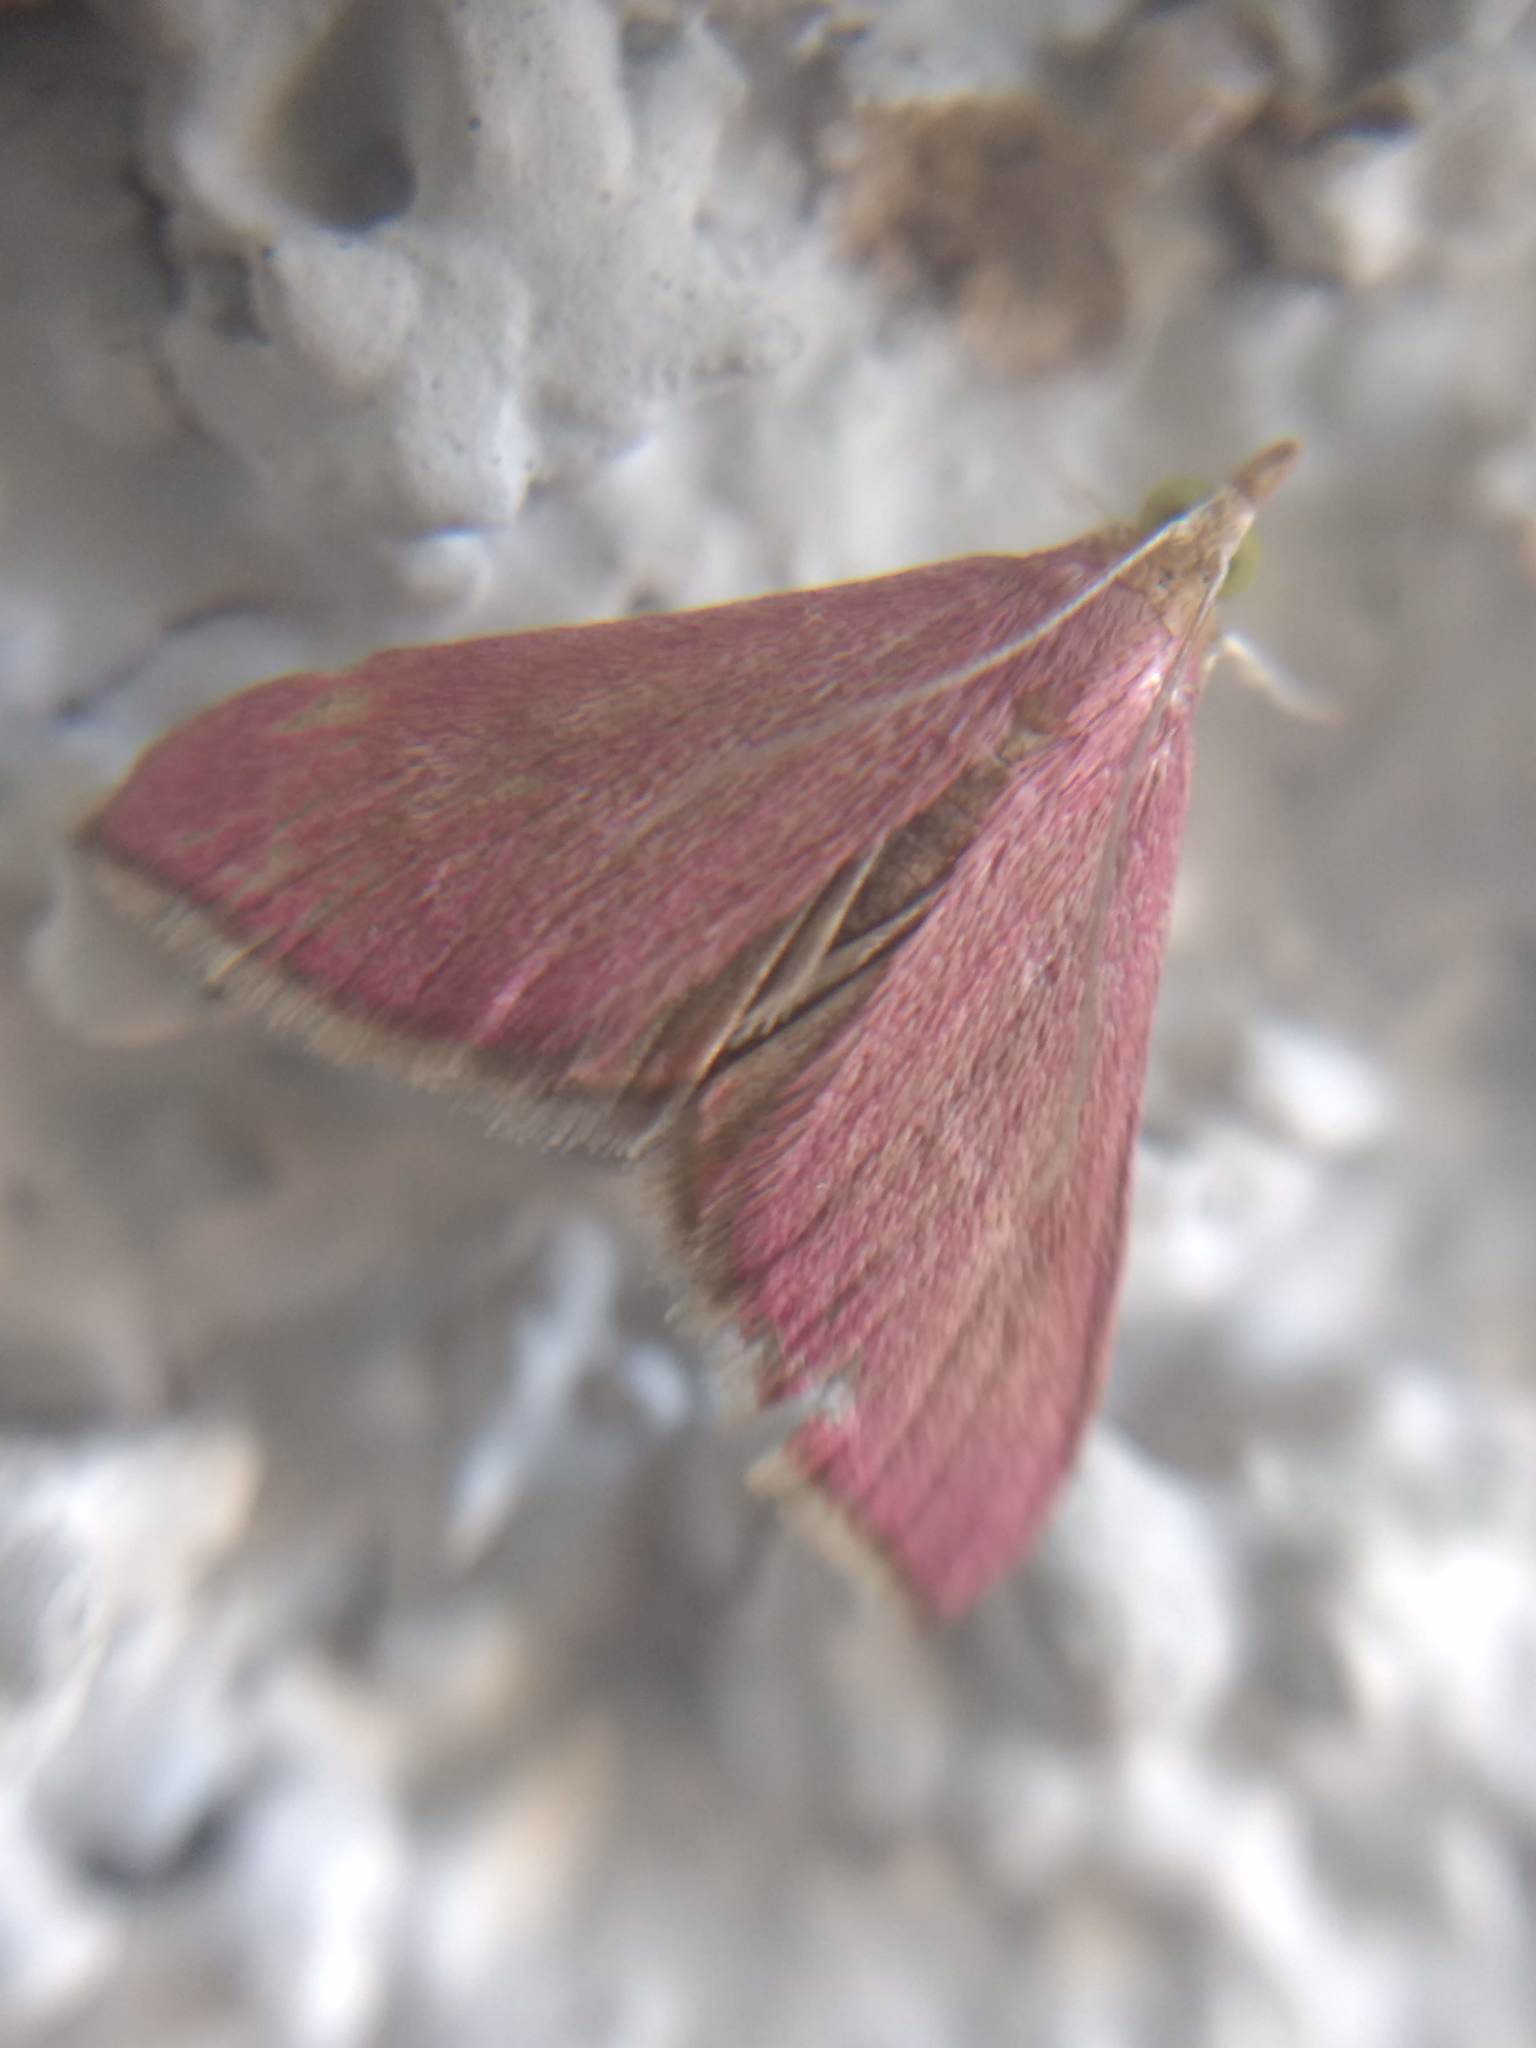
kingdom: Animalia
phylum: Arthropoda
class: Insecta
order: Lepidoptera
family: Crambidae
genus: Pyrausta
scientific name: Pyrausta inornatalis
